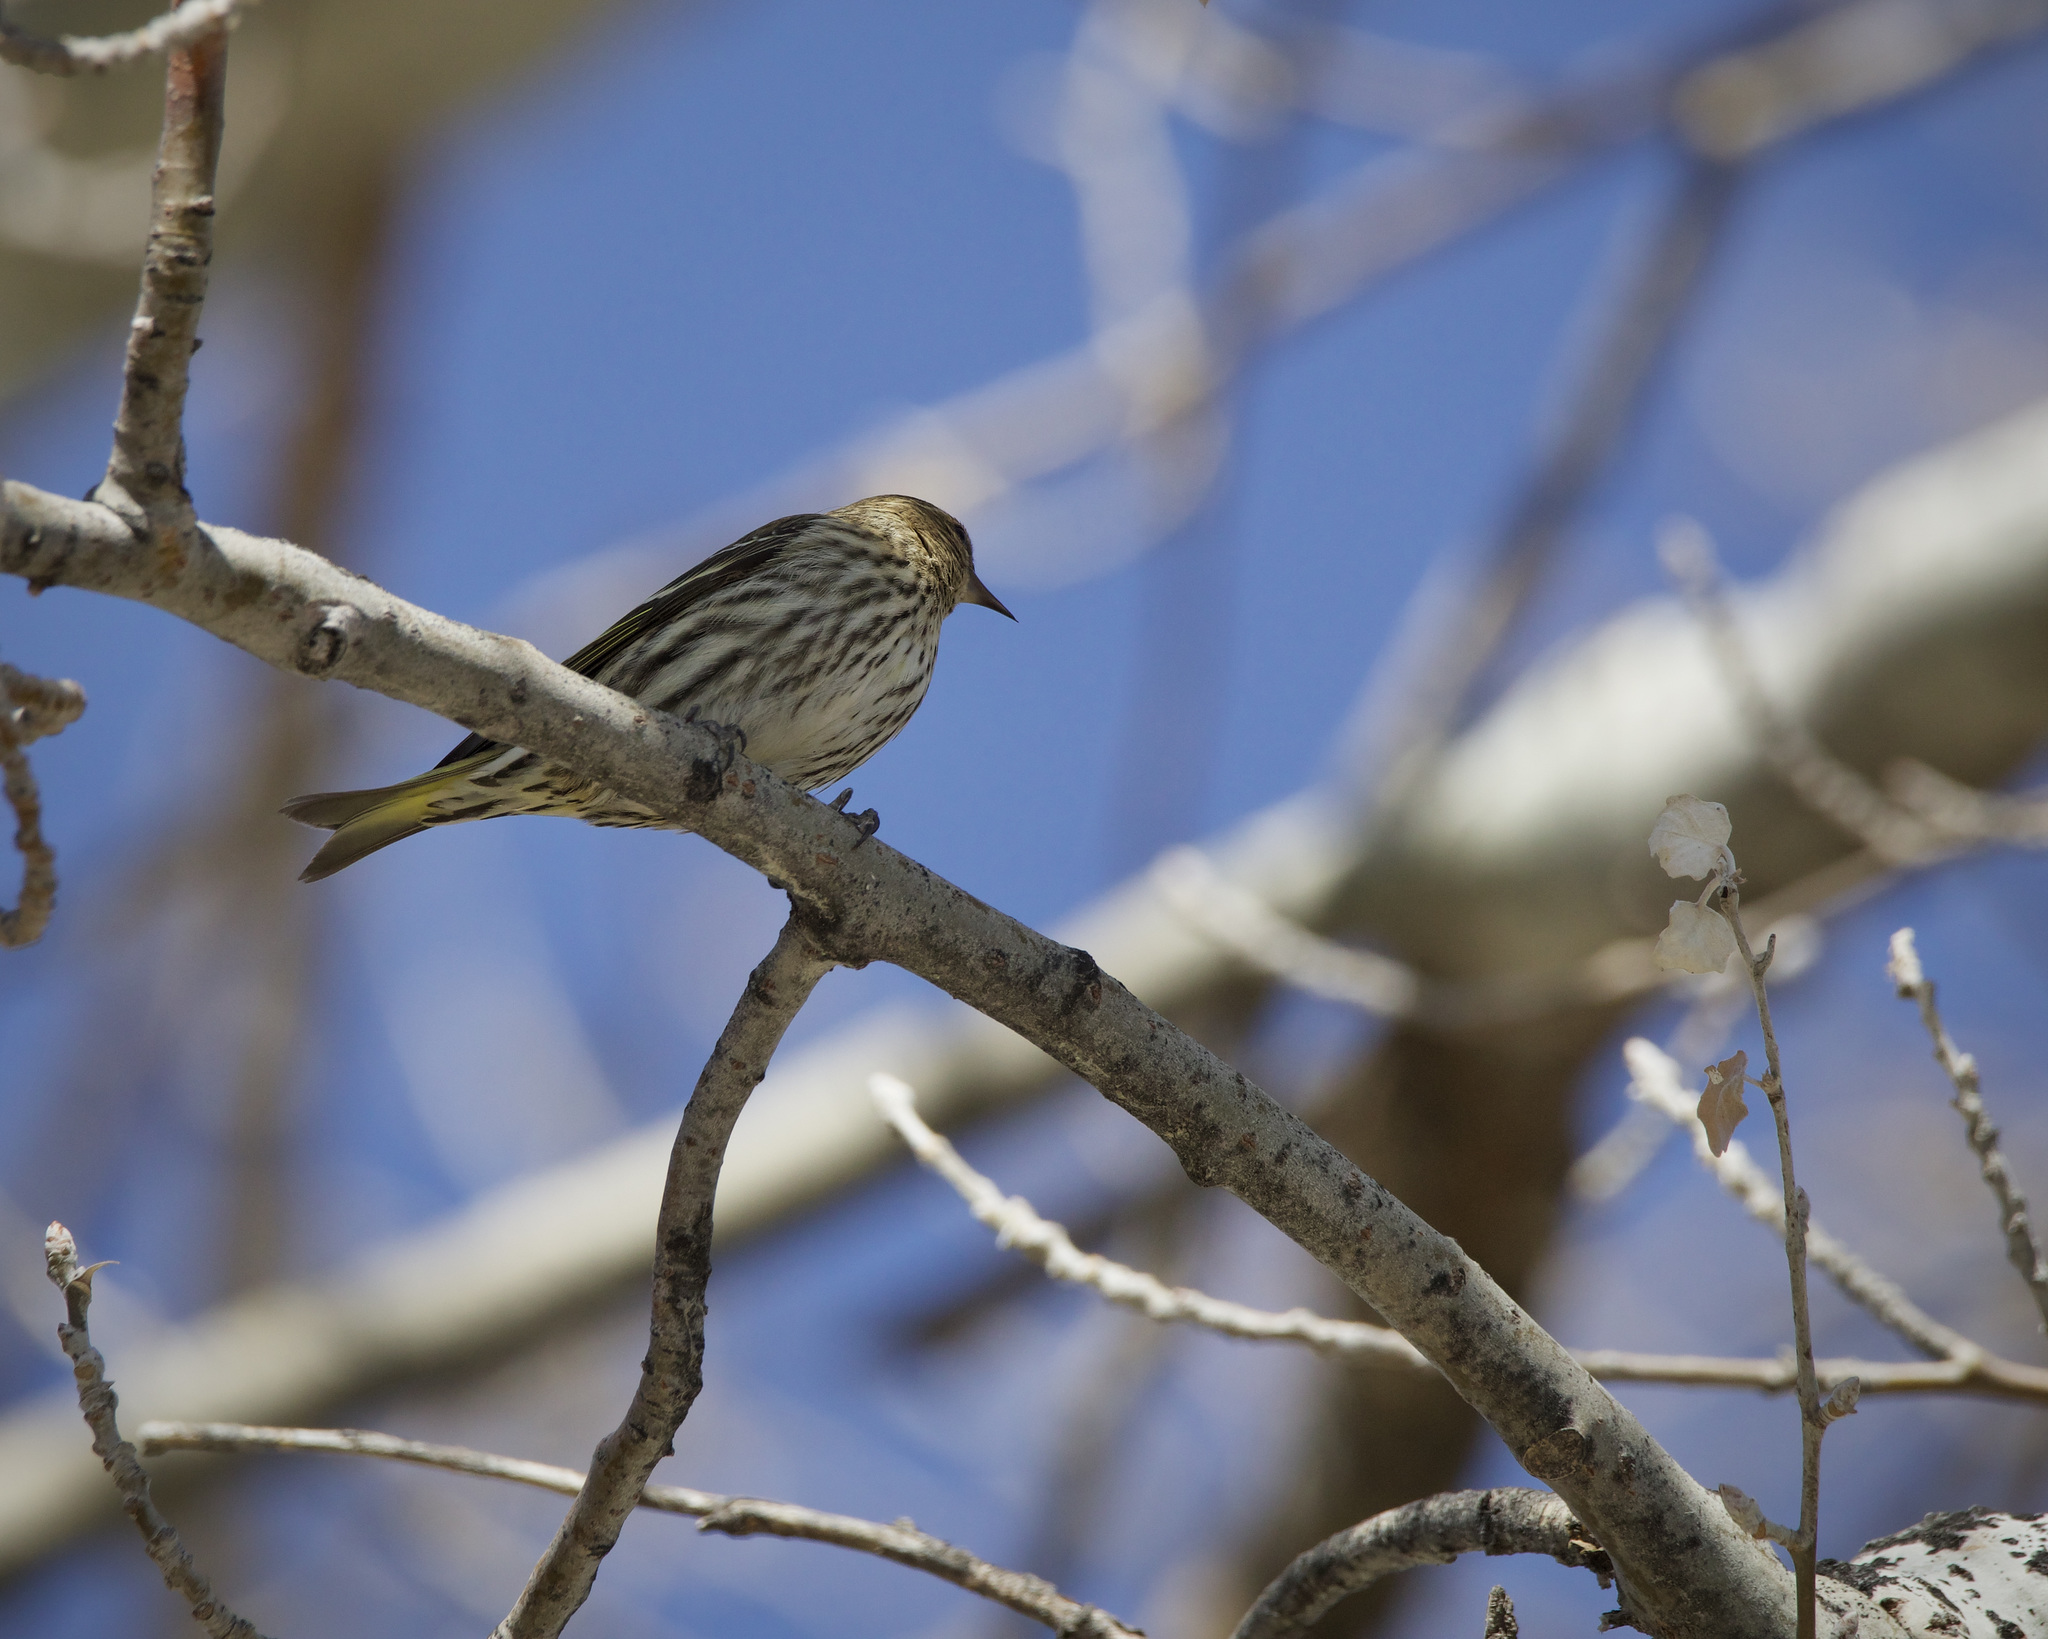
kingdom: Animalia
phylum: Chordata
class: Aves
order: Passeriformes
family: Fringillidae
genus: Spinus
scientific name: Spinus pinus
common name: Pine siskin
